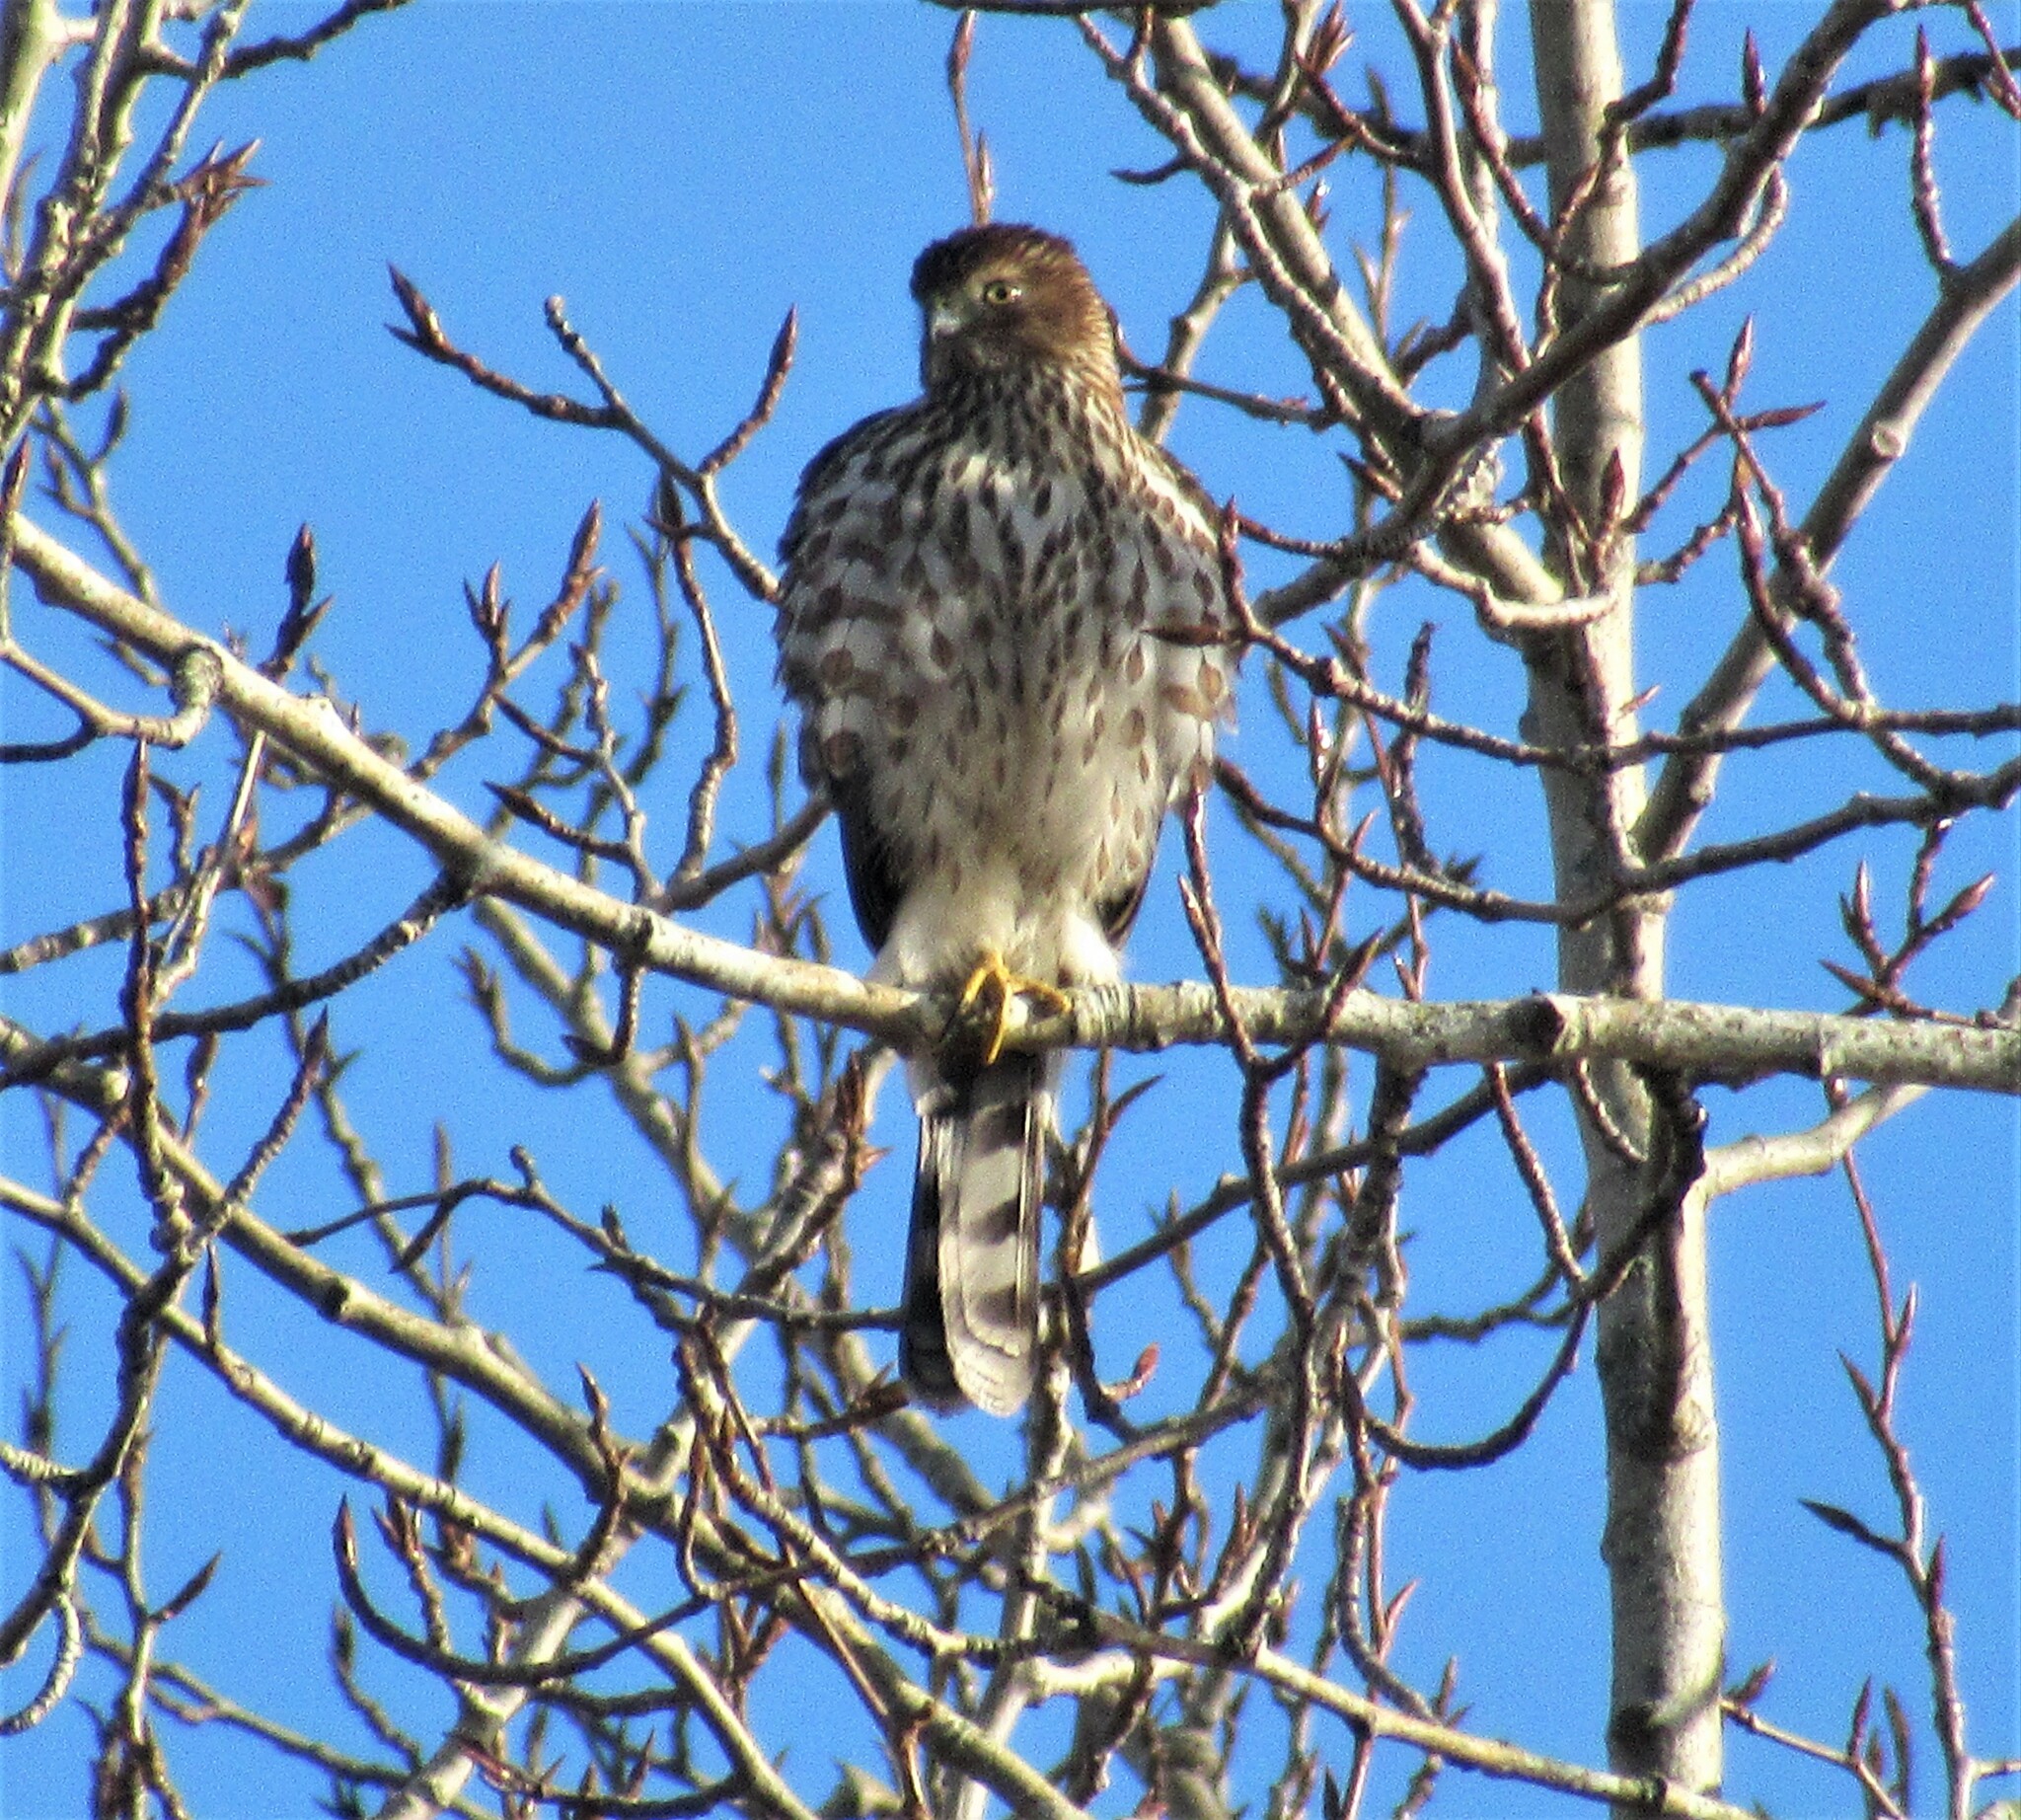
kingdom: Animalia
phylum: Chordata
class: Aves
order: Accipitriformes
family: Accipitridae
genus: Accipiter
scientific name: Accipiter cooperii
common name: Cooper's hawk
